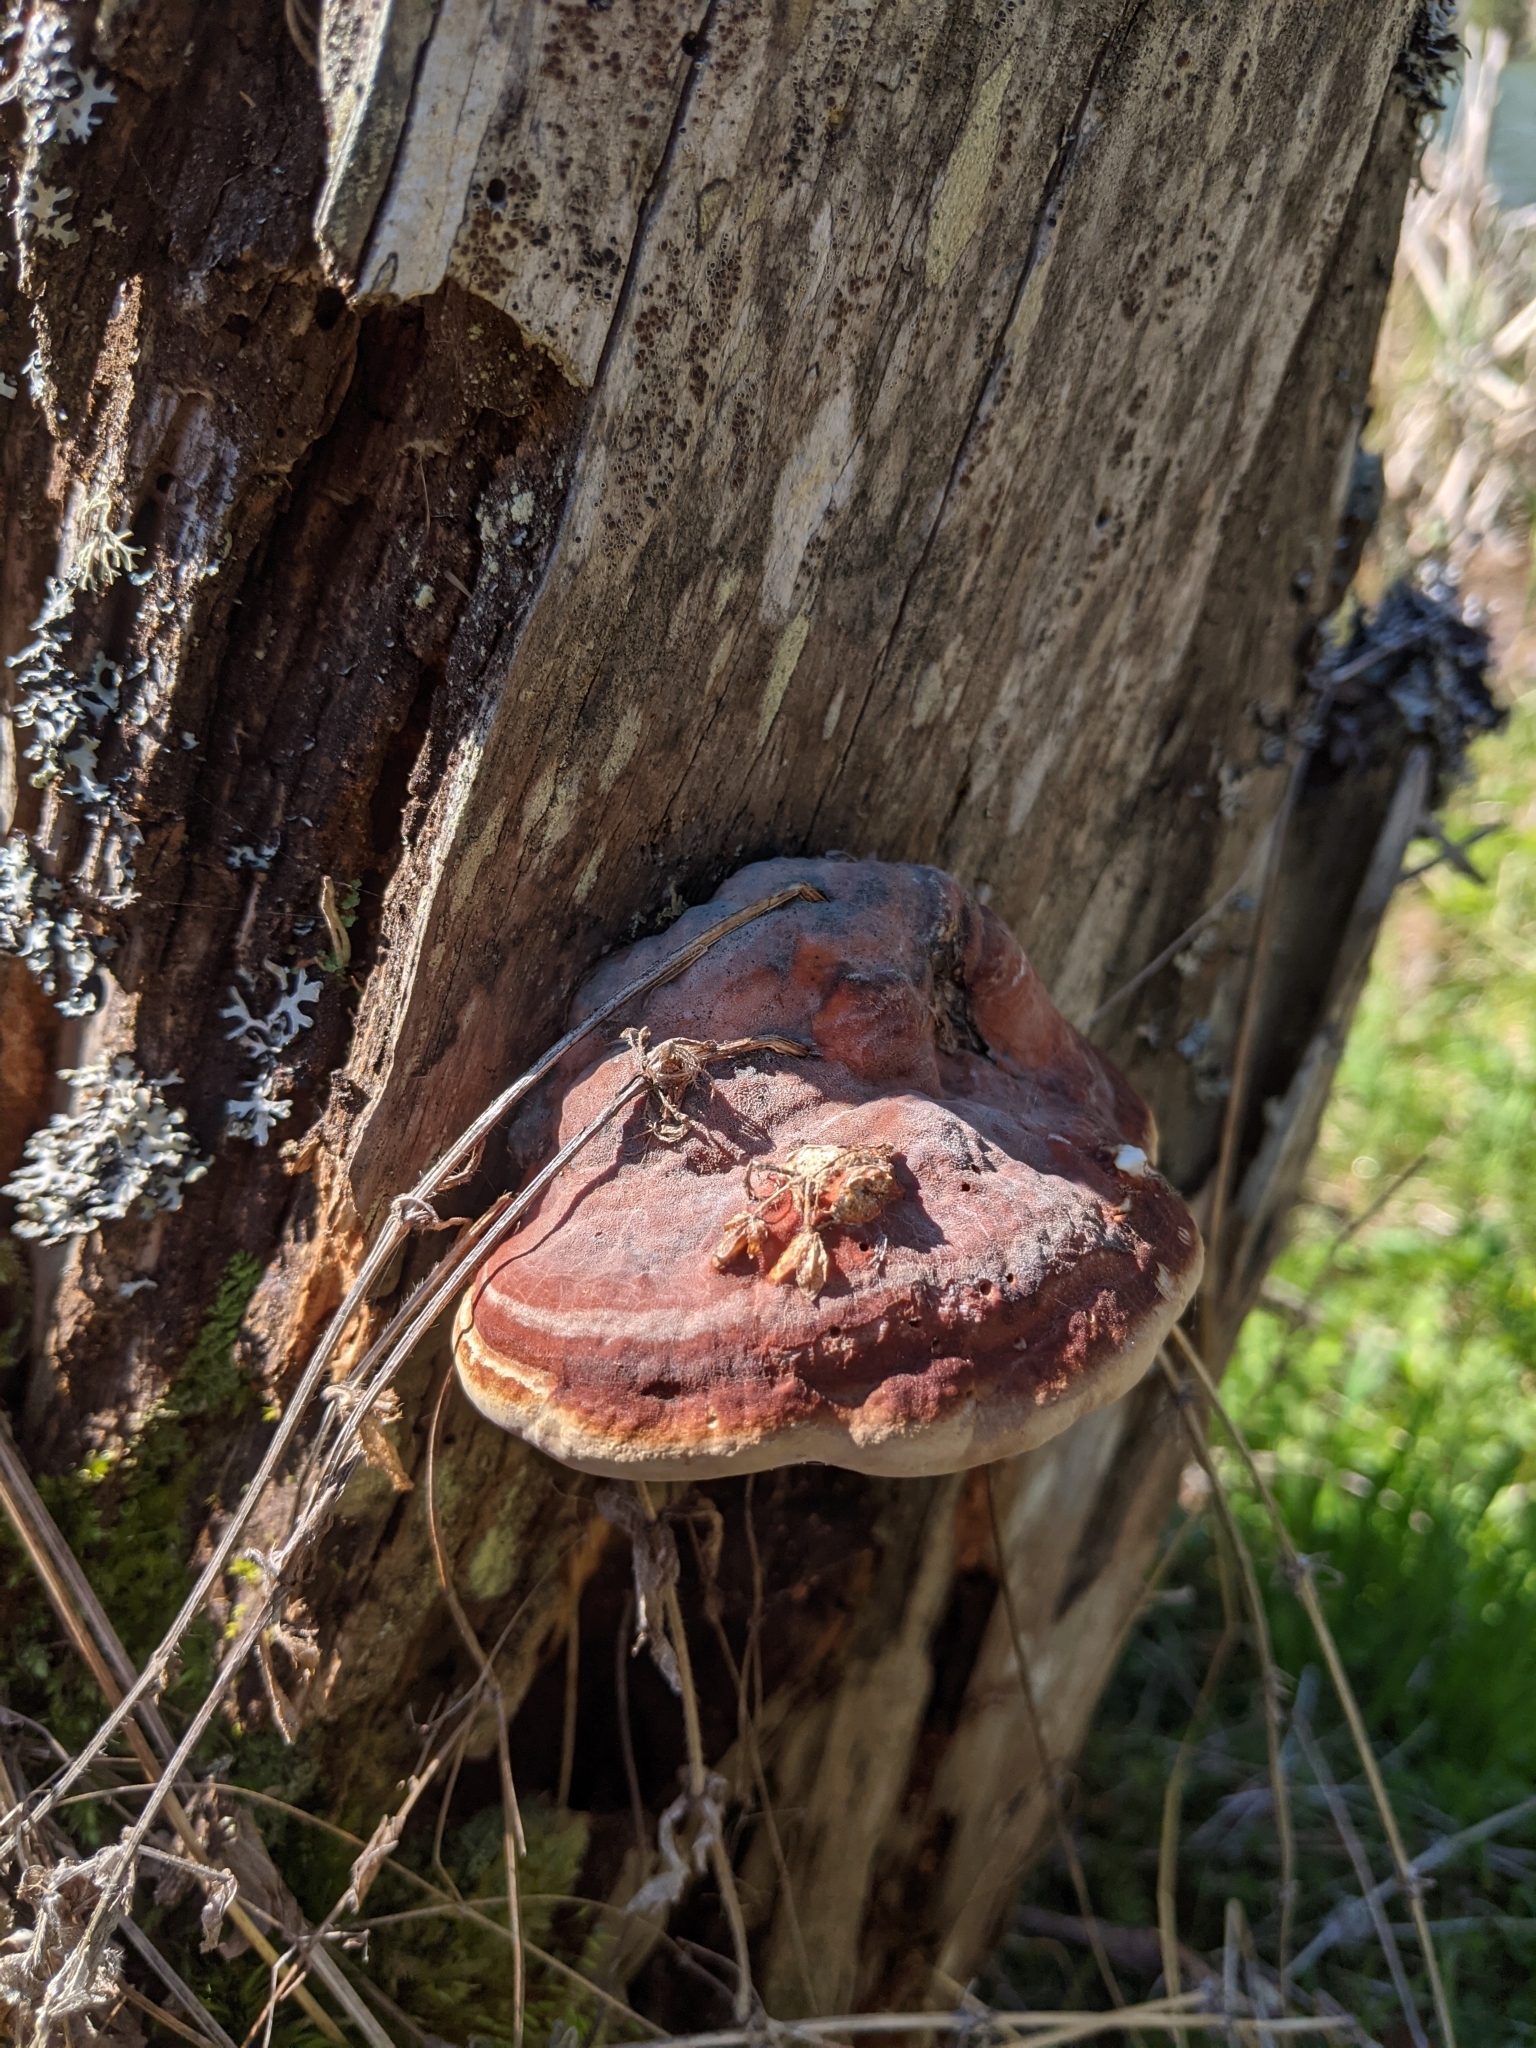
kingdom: Fungi
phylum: Basidiomycota
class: Agaricomycetes
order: Polyporales
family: Fomitopsidaceae
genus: Fomitopsis
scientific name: Fomitopsis pinicola
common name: Red-belted bracket
